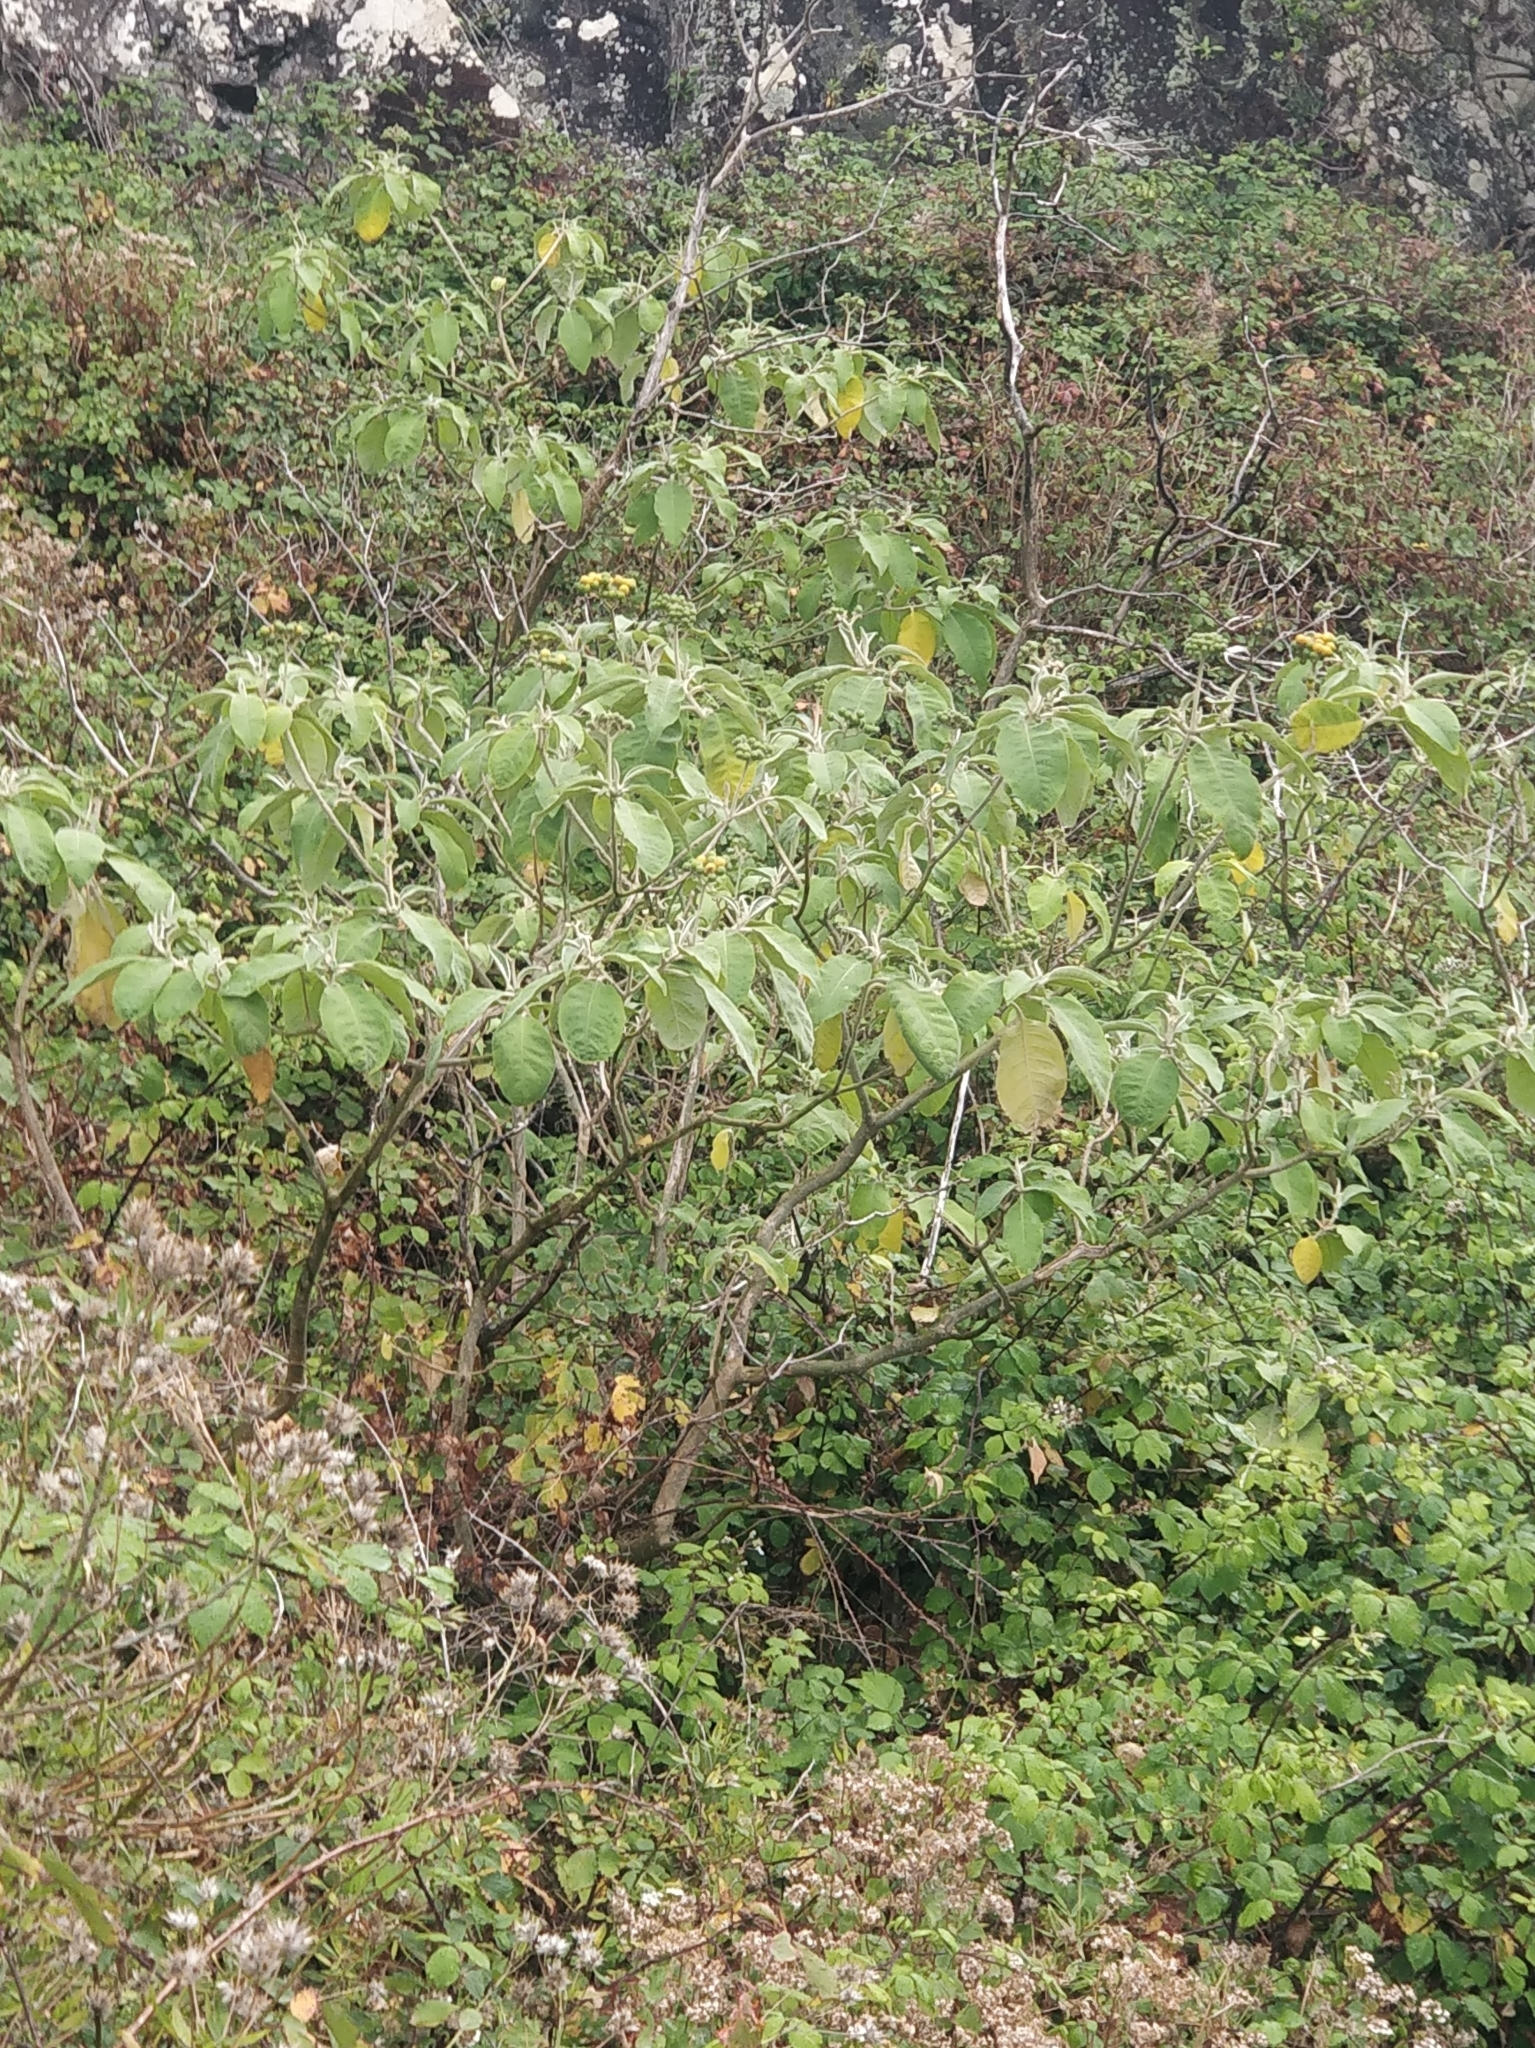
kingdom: Plantae
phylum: Tracheophyta
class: Magnoliopsida
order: Solanales
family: Solanaceae
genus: Solanum
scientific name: Solanum mauritianum
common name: Earleaf nightshade
